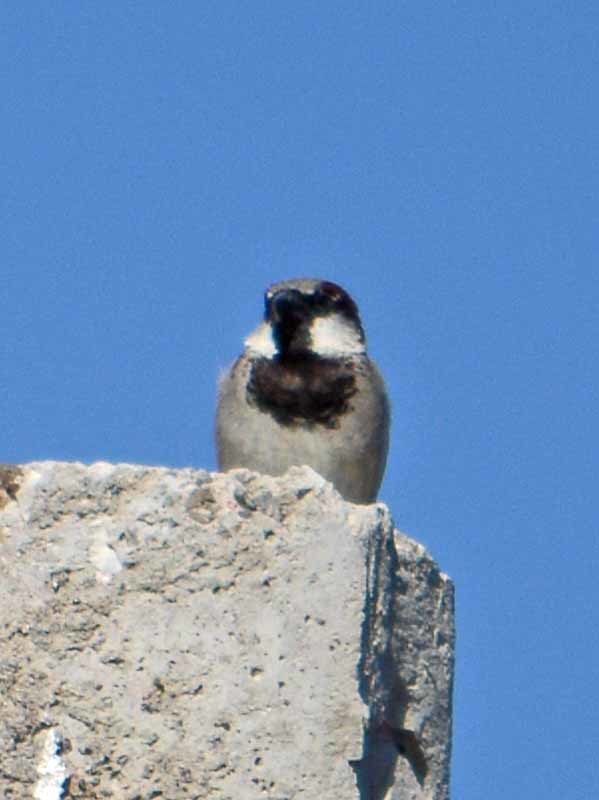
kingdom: Animalia
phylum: Chordata
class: Aves
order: Passeriformes
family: Passeridae
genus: Passer
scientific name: Passer domesticus
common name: House sparrow
